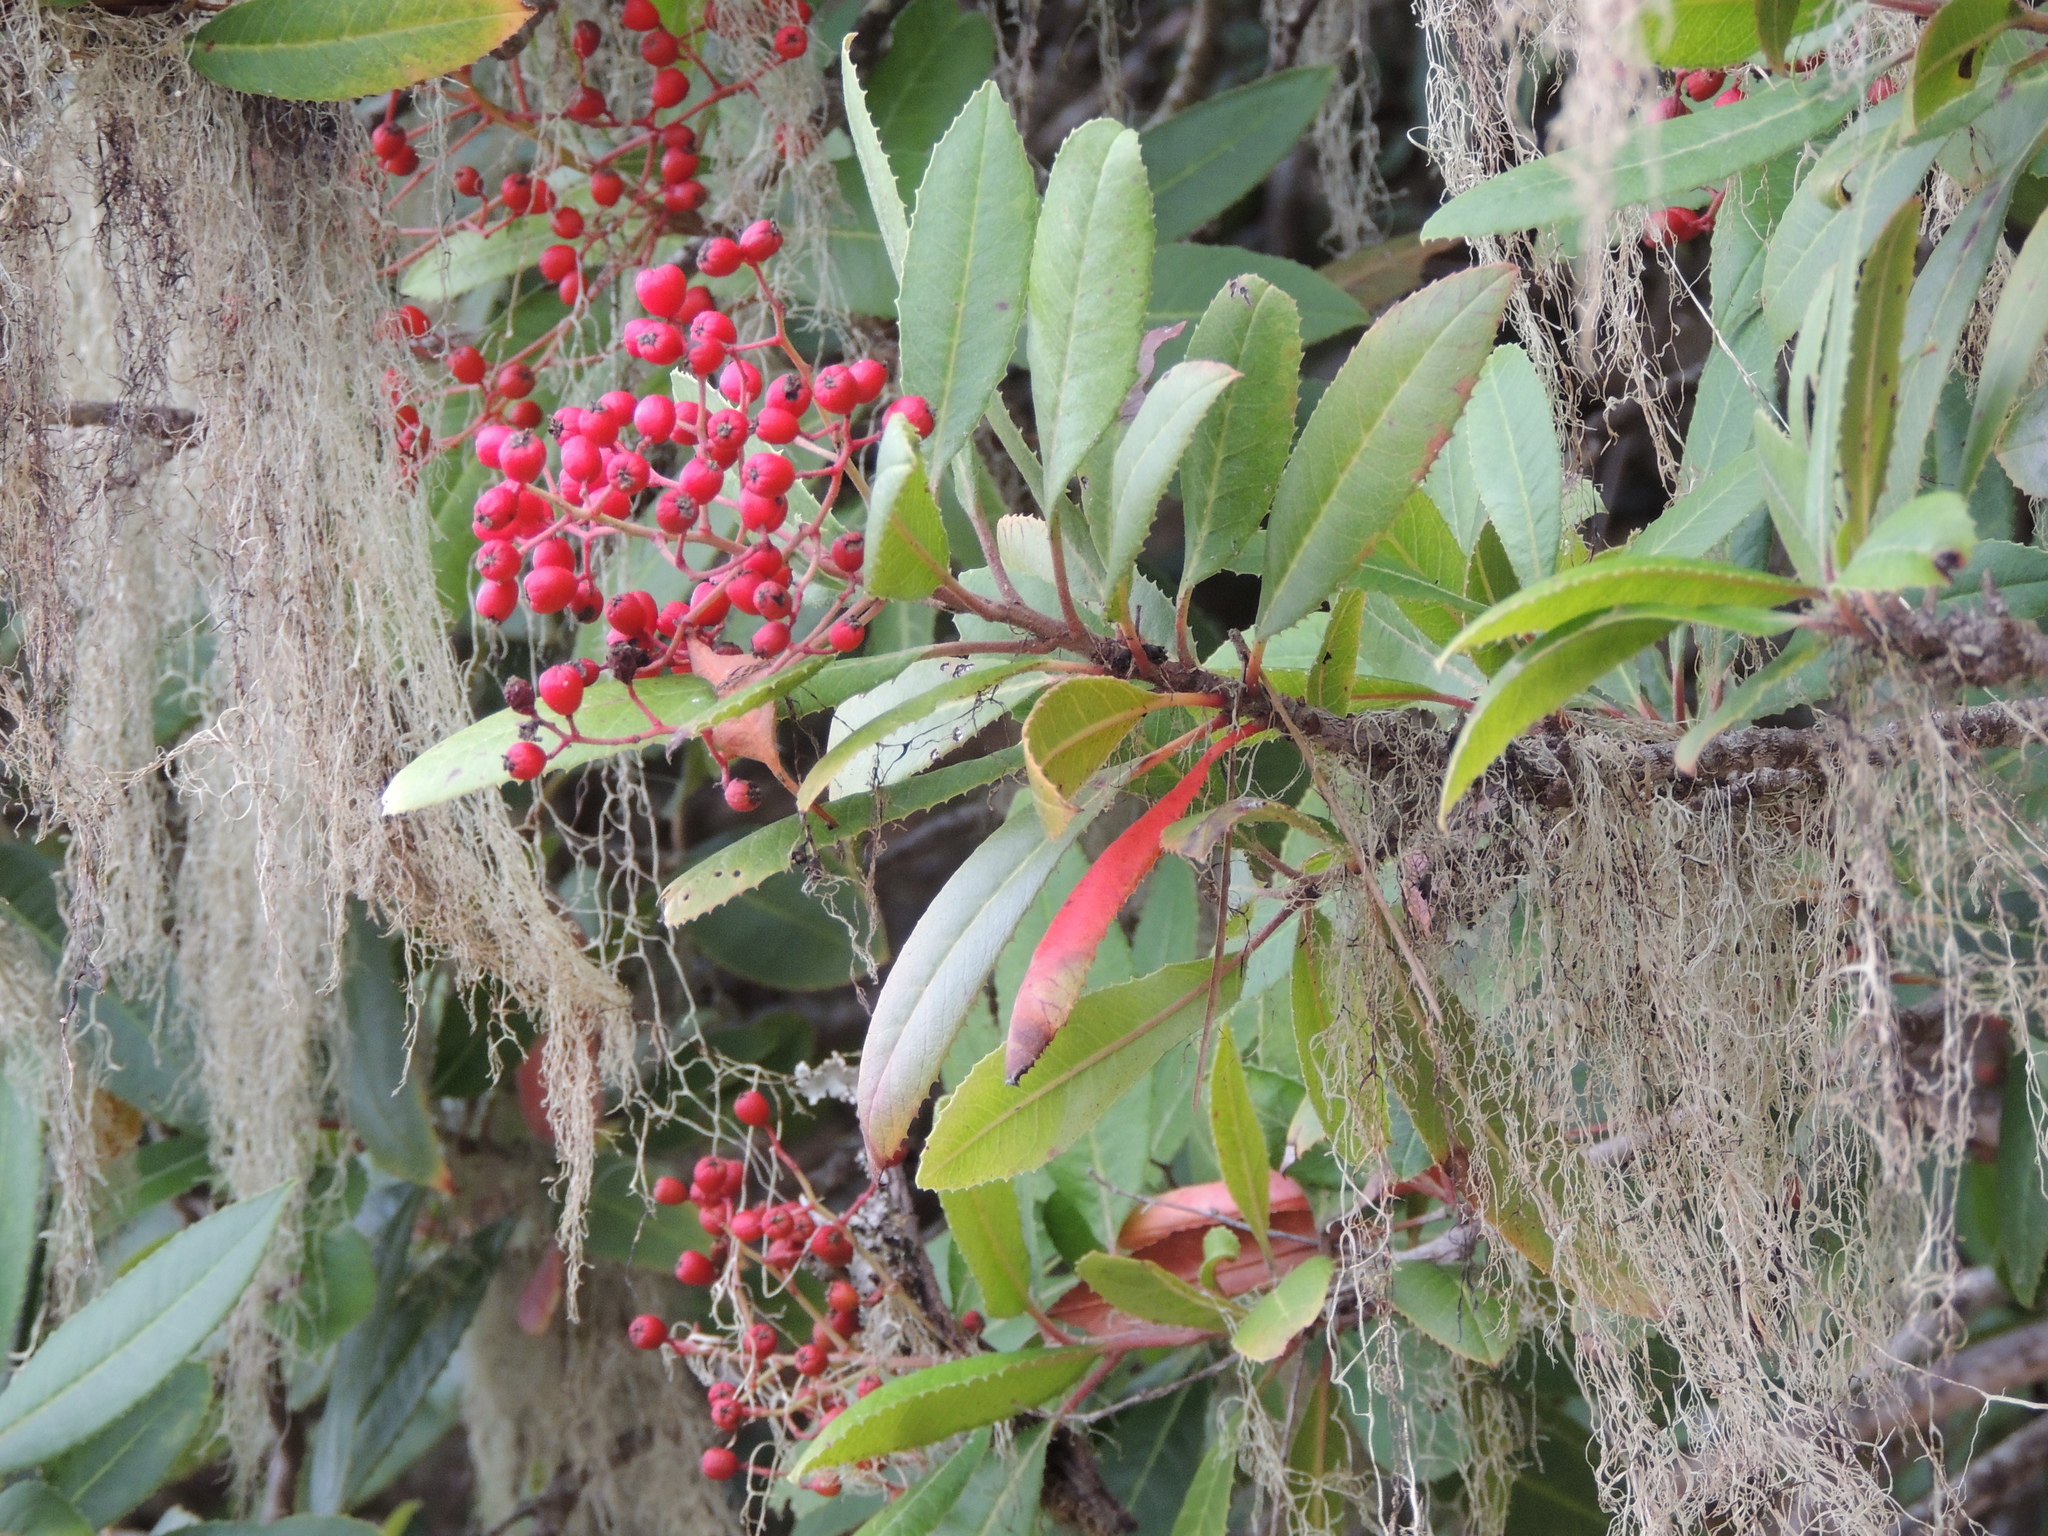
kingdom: Plantae
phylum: Tracheophyta
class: Magnoliopsida
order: Rosales
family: Rosaceae
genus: Heteromeles
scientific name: Heteromeles arbutifolia
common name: California-holly
